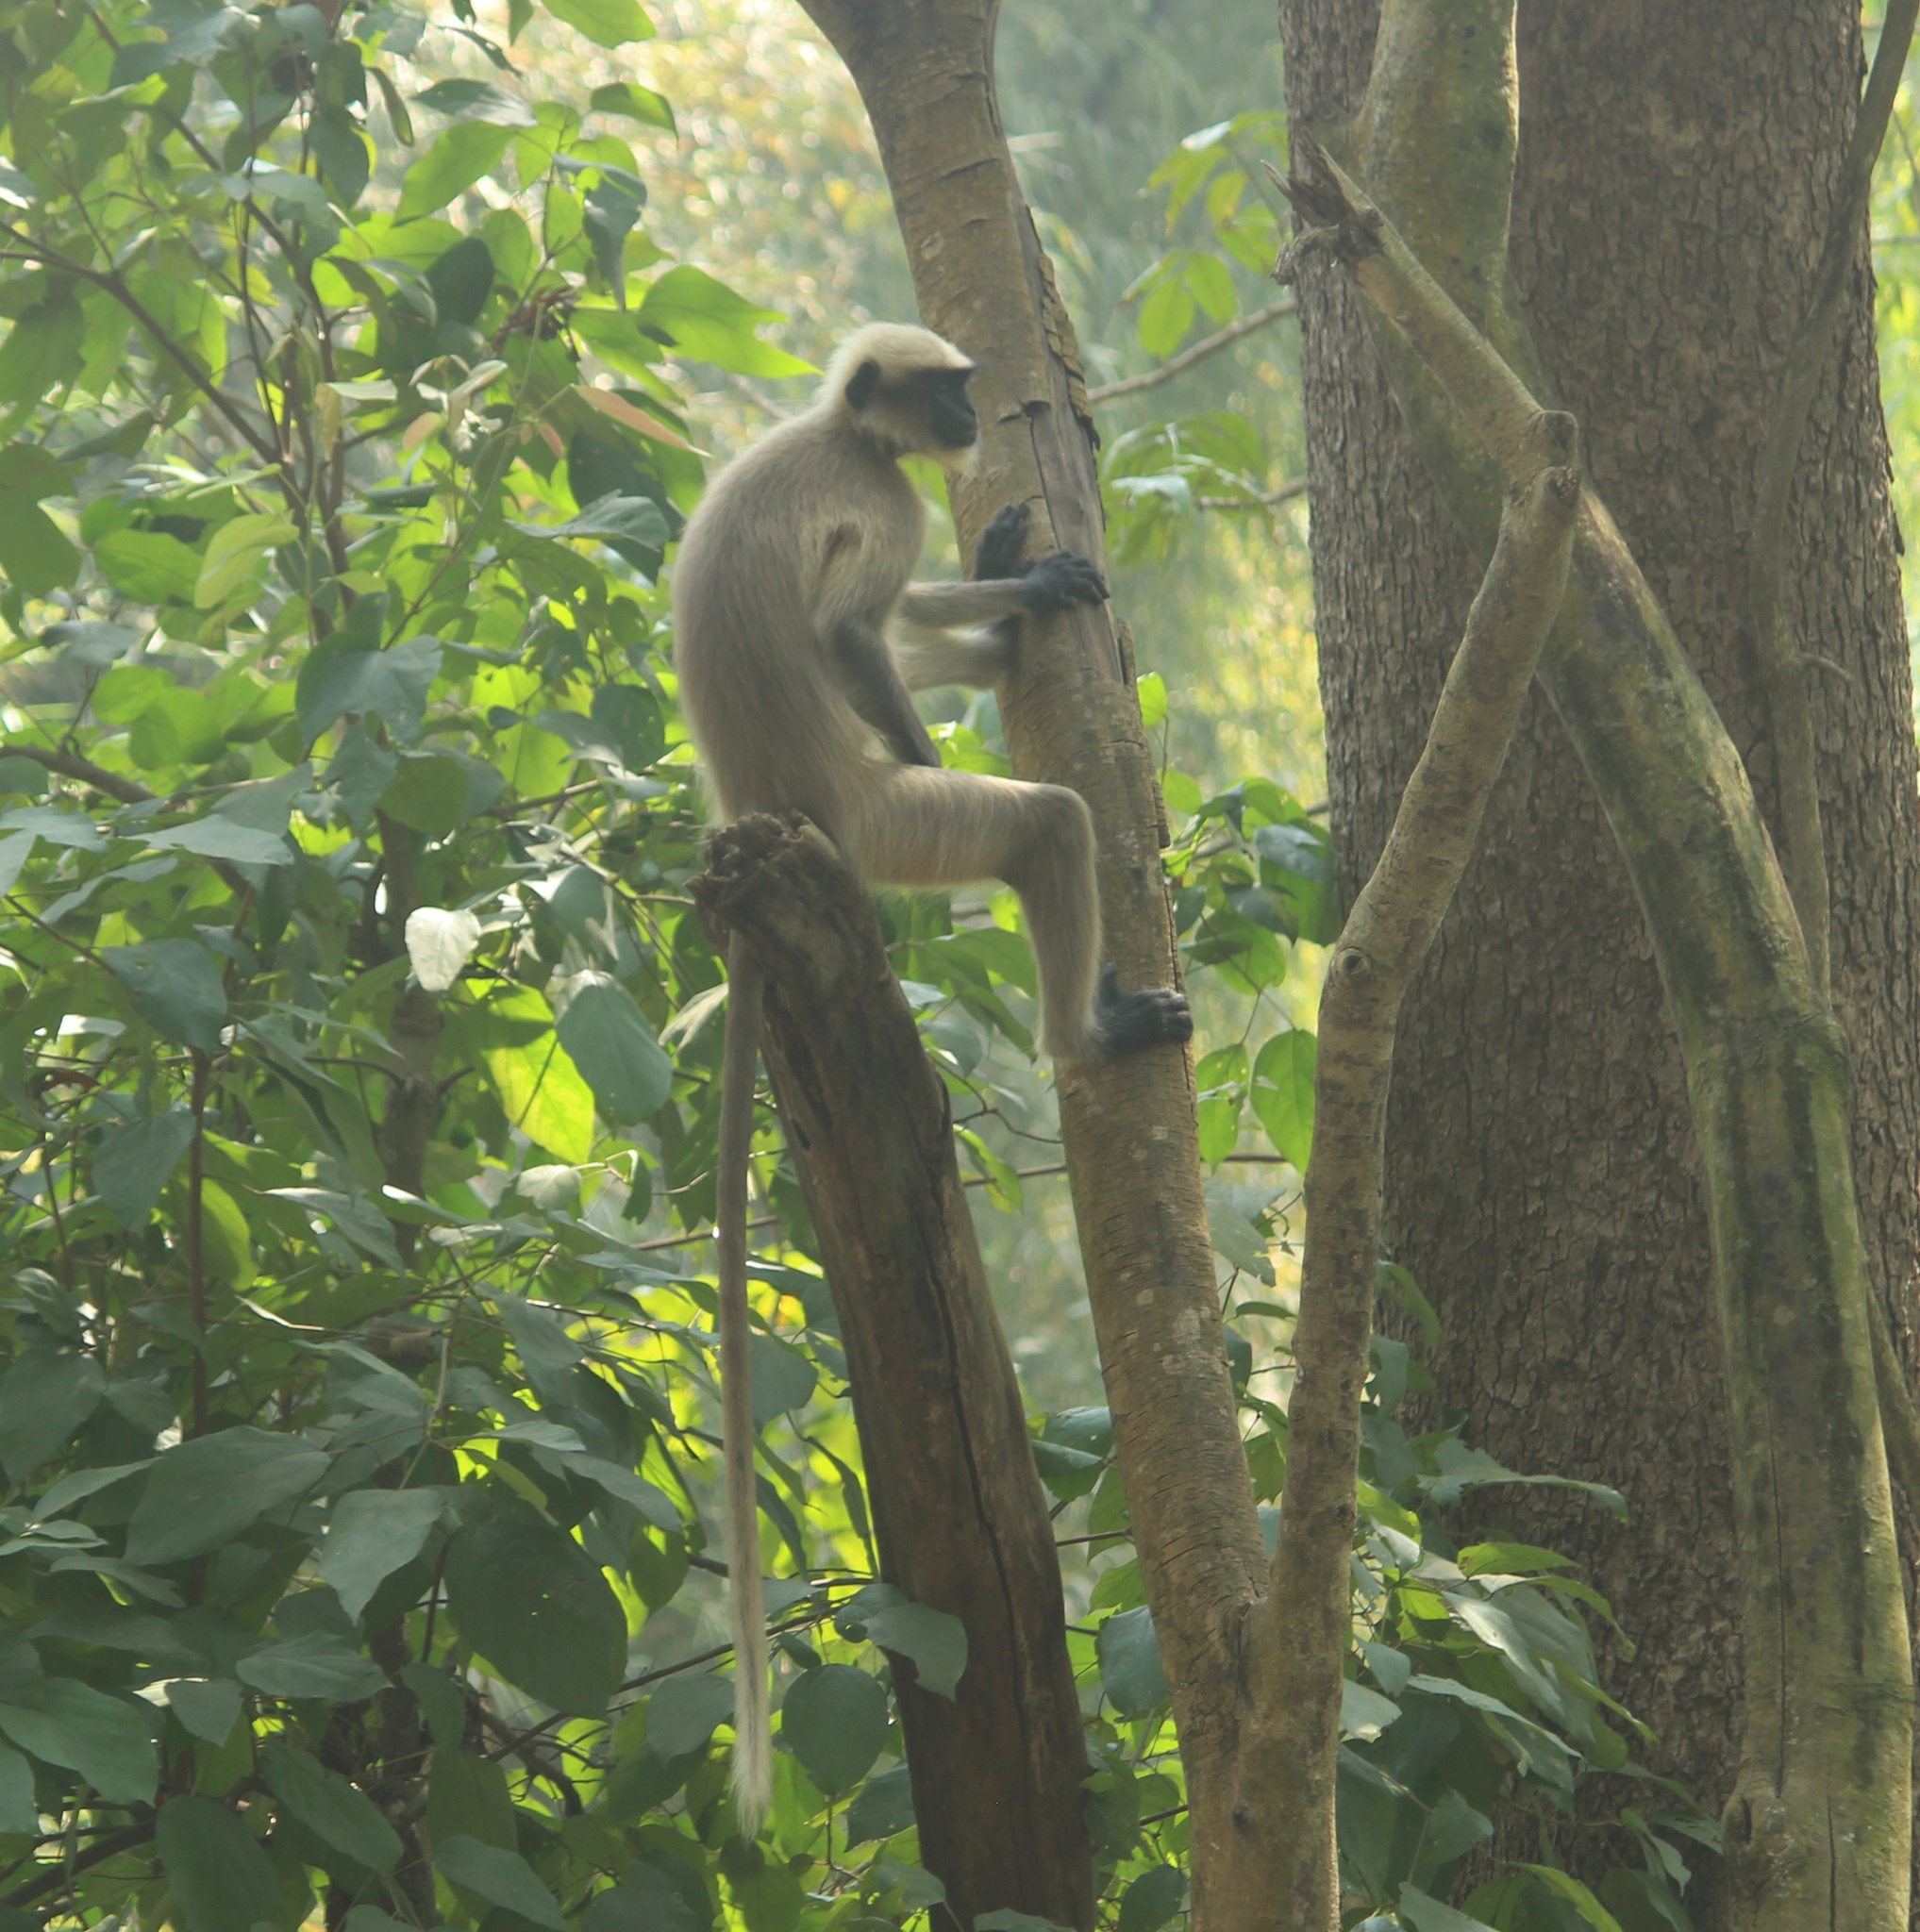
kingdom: Animalia
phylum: Chordata
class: Mammalia
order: Primates
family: Cercopithecidae
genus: Semnopithecus
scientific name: Semnopithecus hypoleucos
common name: Black-footed gray langur
